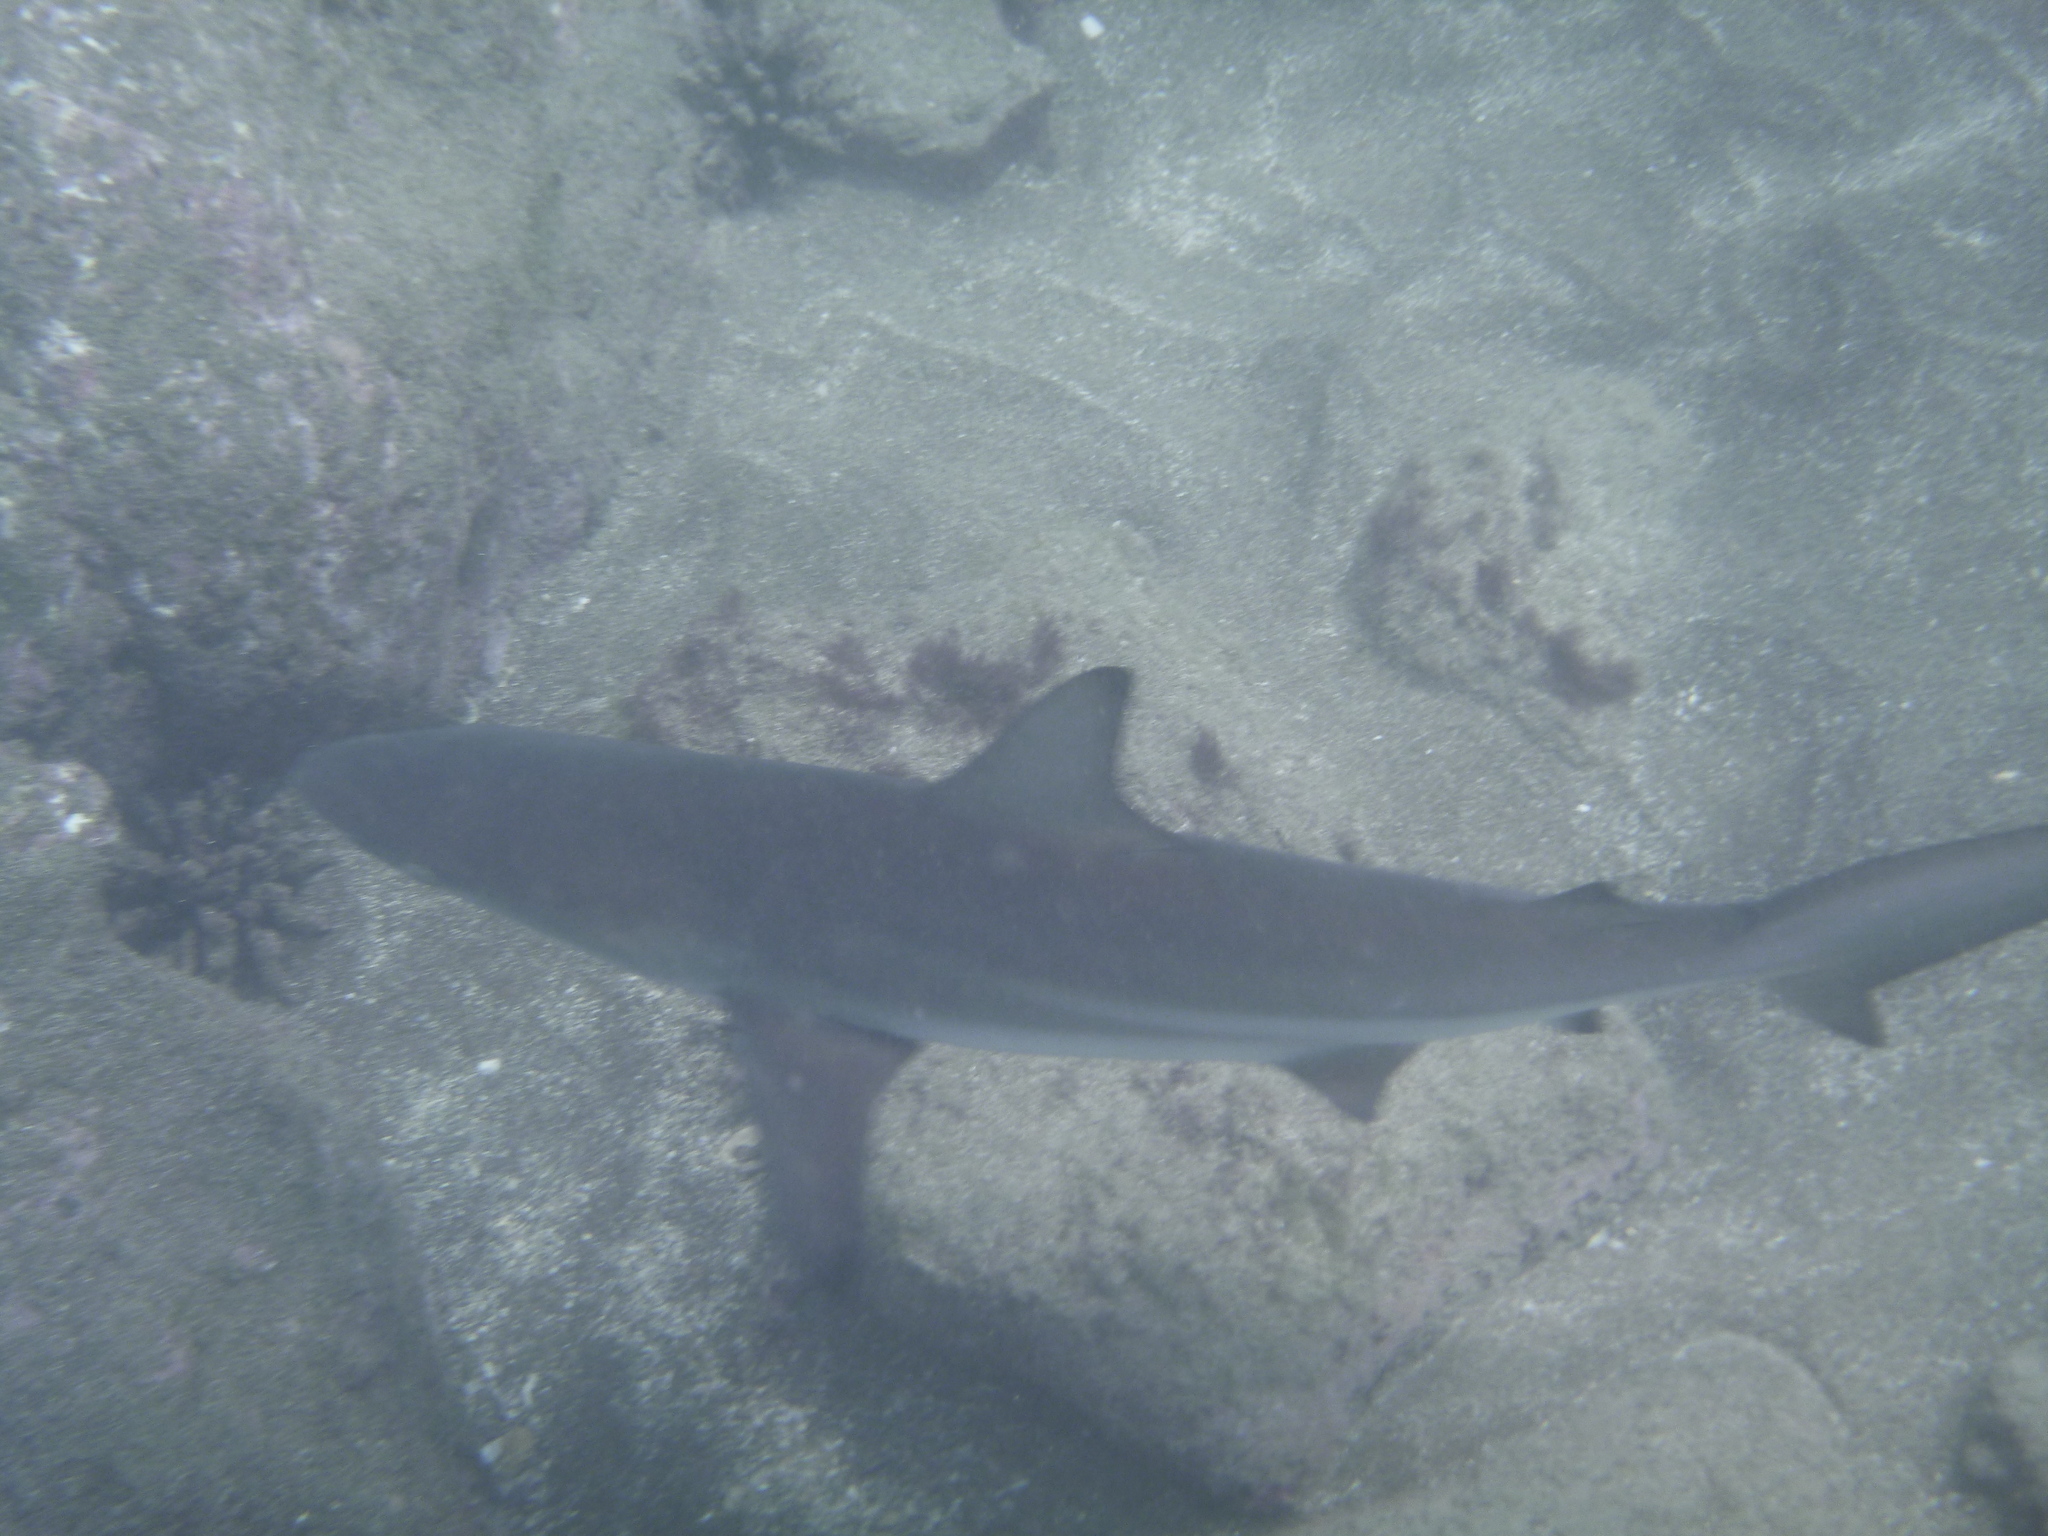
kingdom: Animalia
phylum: Chordata
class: Elasmobranchii
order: Carcharhiniformes
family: Carcharhinidae
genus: Carcharhinus
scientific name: Carcharhinus limbatus
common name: Blacktip shark
